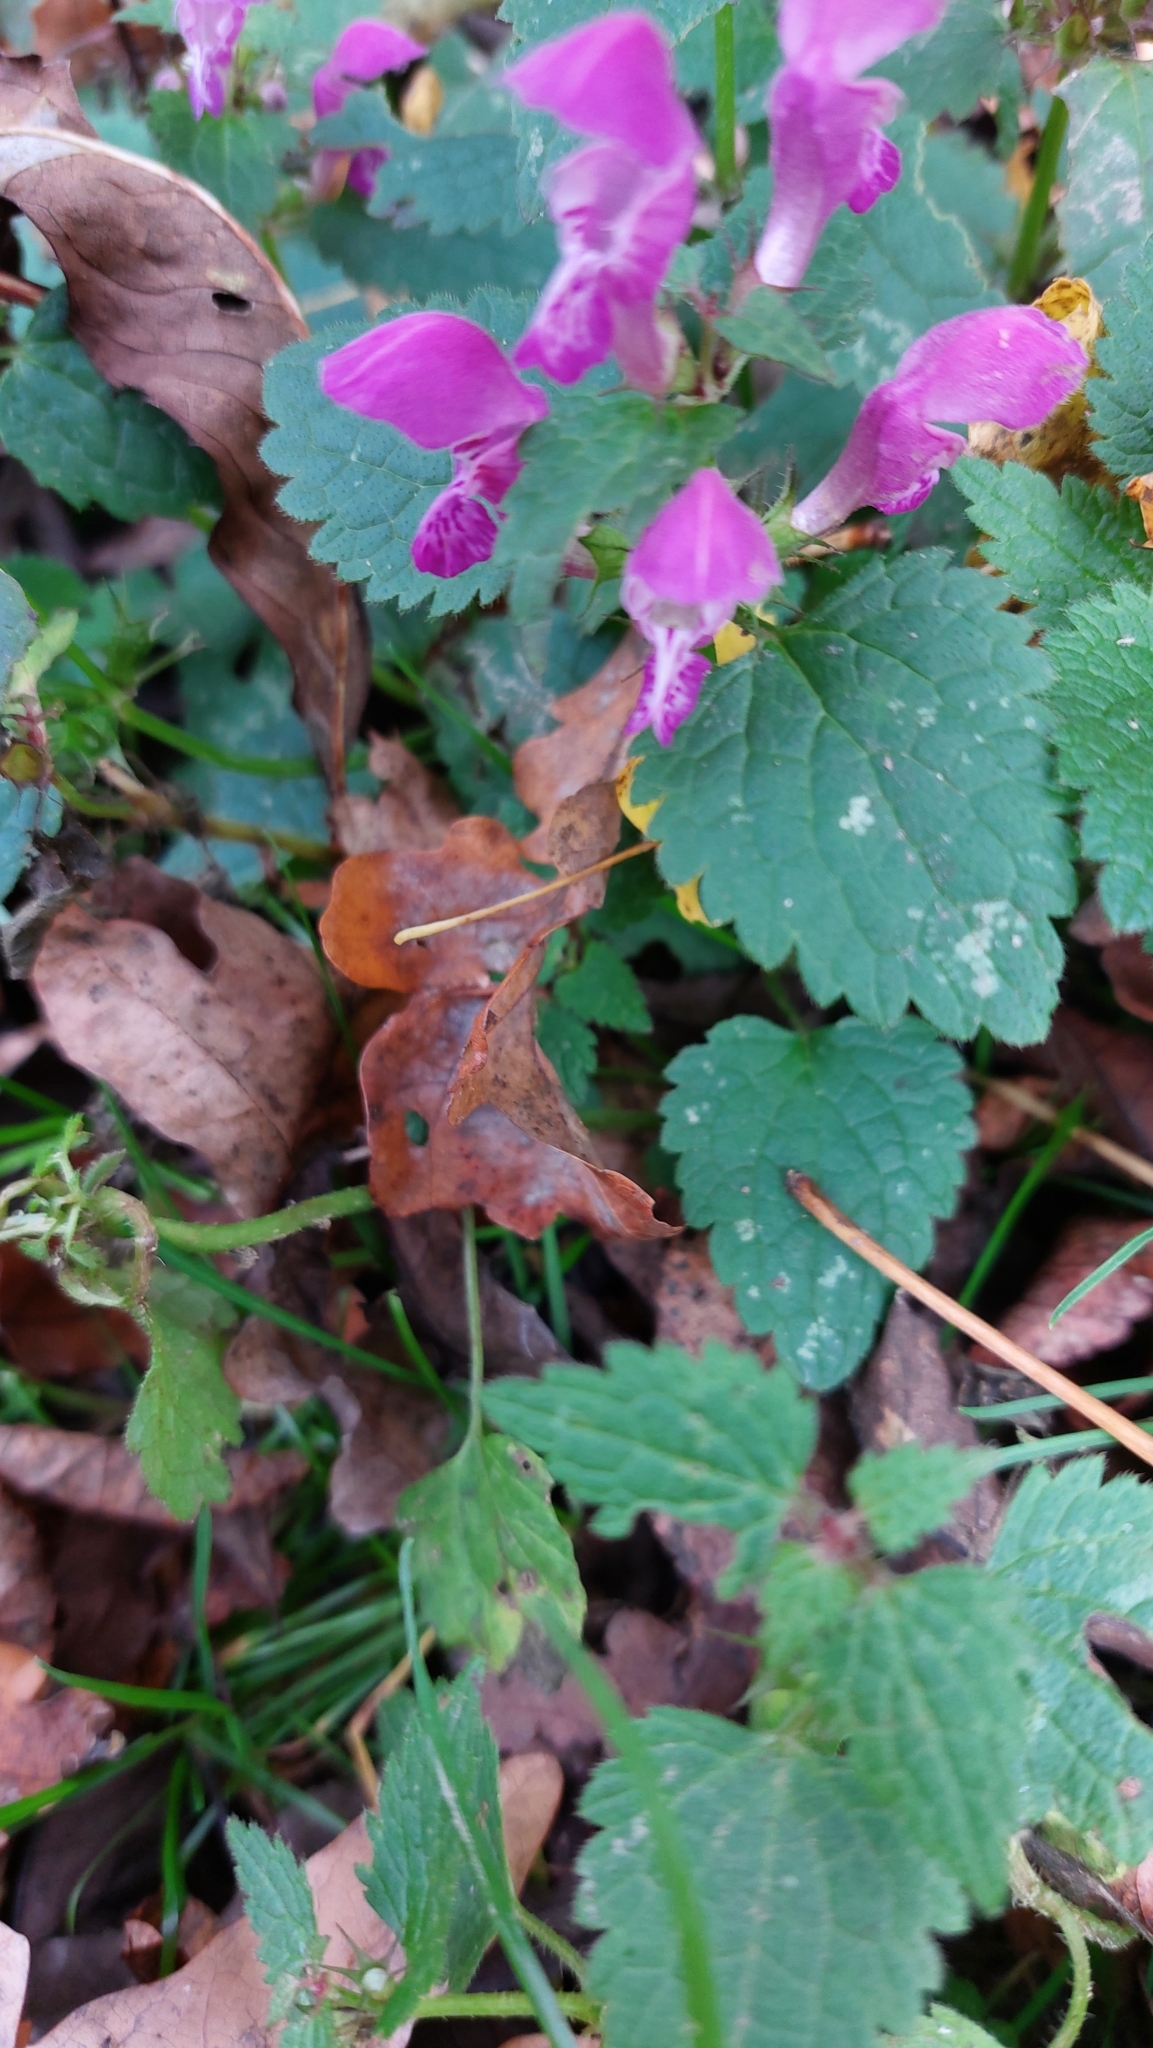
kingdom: Plantae
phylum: Tracheophyta
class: Magnoliopsida
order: Lamiales
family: Lamiaceae
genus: Lamium
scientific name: Lamium maculatum
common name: Spotted dead-nettle
